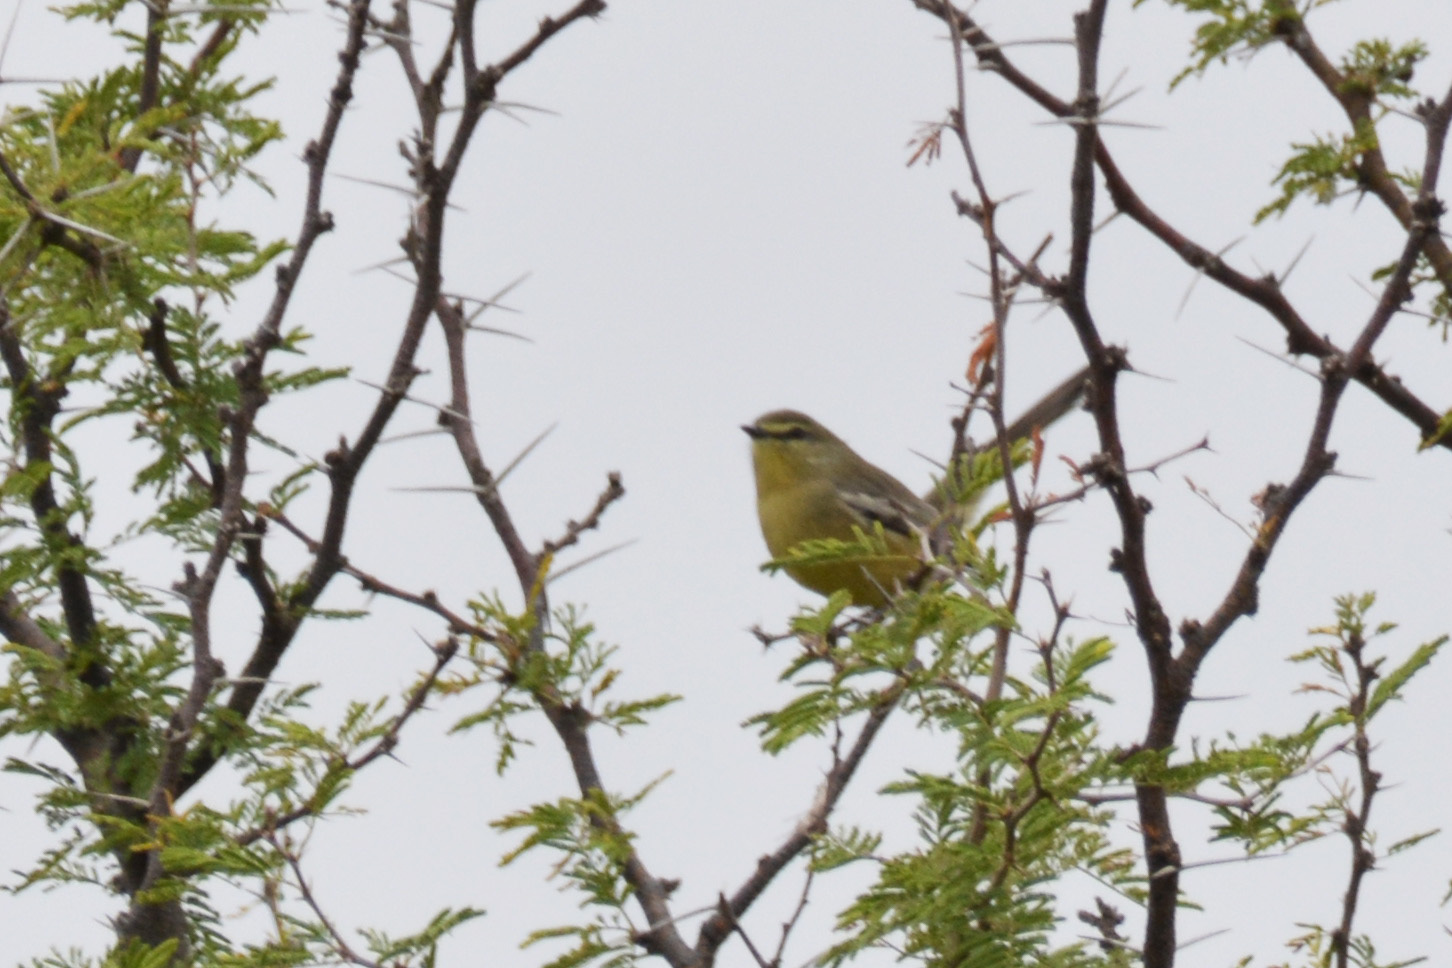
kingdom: Animalia
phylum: Chordata
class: Aves
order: Passeriformes
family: Tyrannidae
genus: Stigmatura
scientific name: Stigmatura budytoides
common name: Greater wagtail-tyrant
